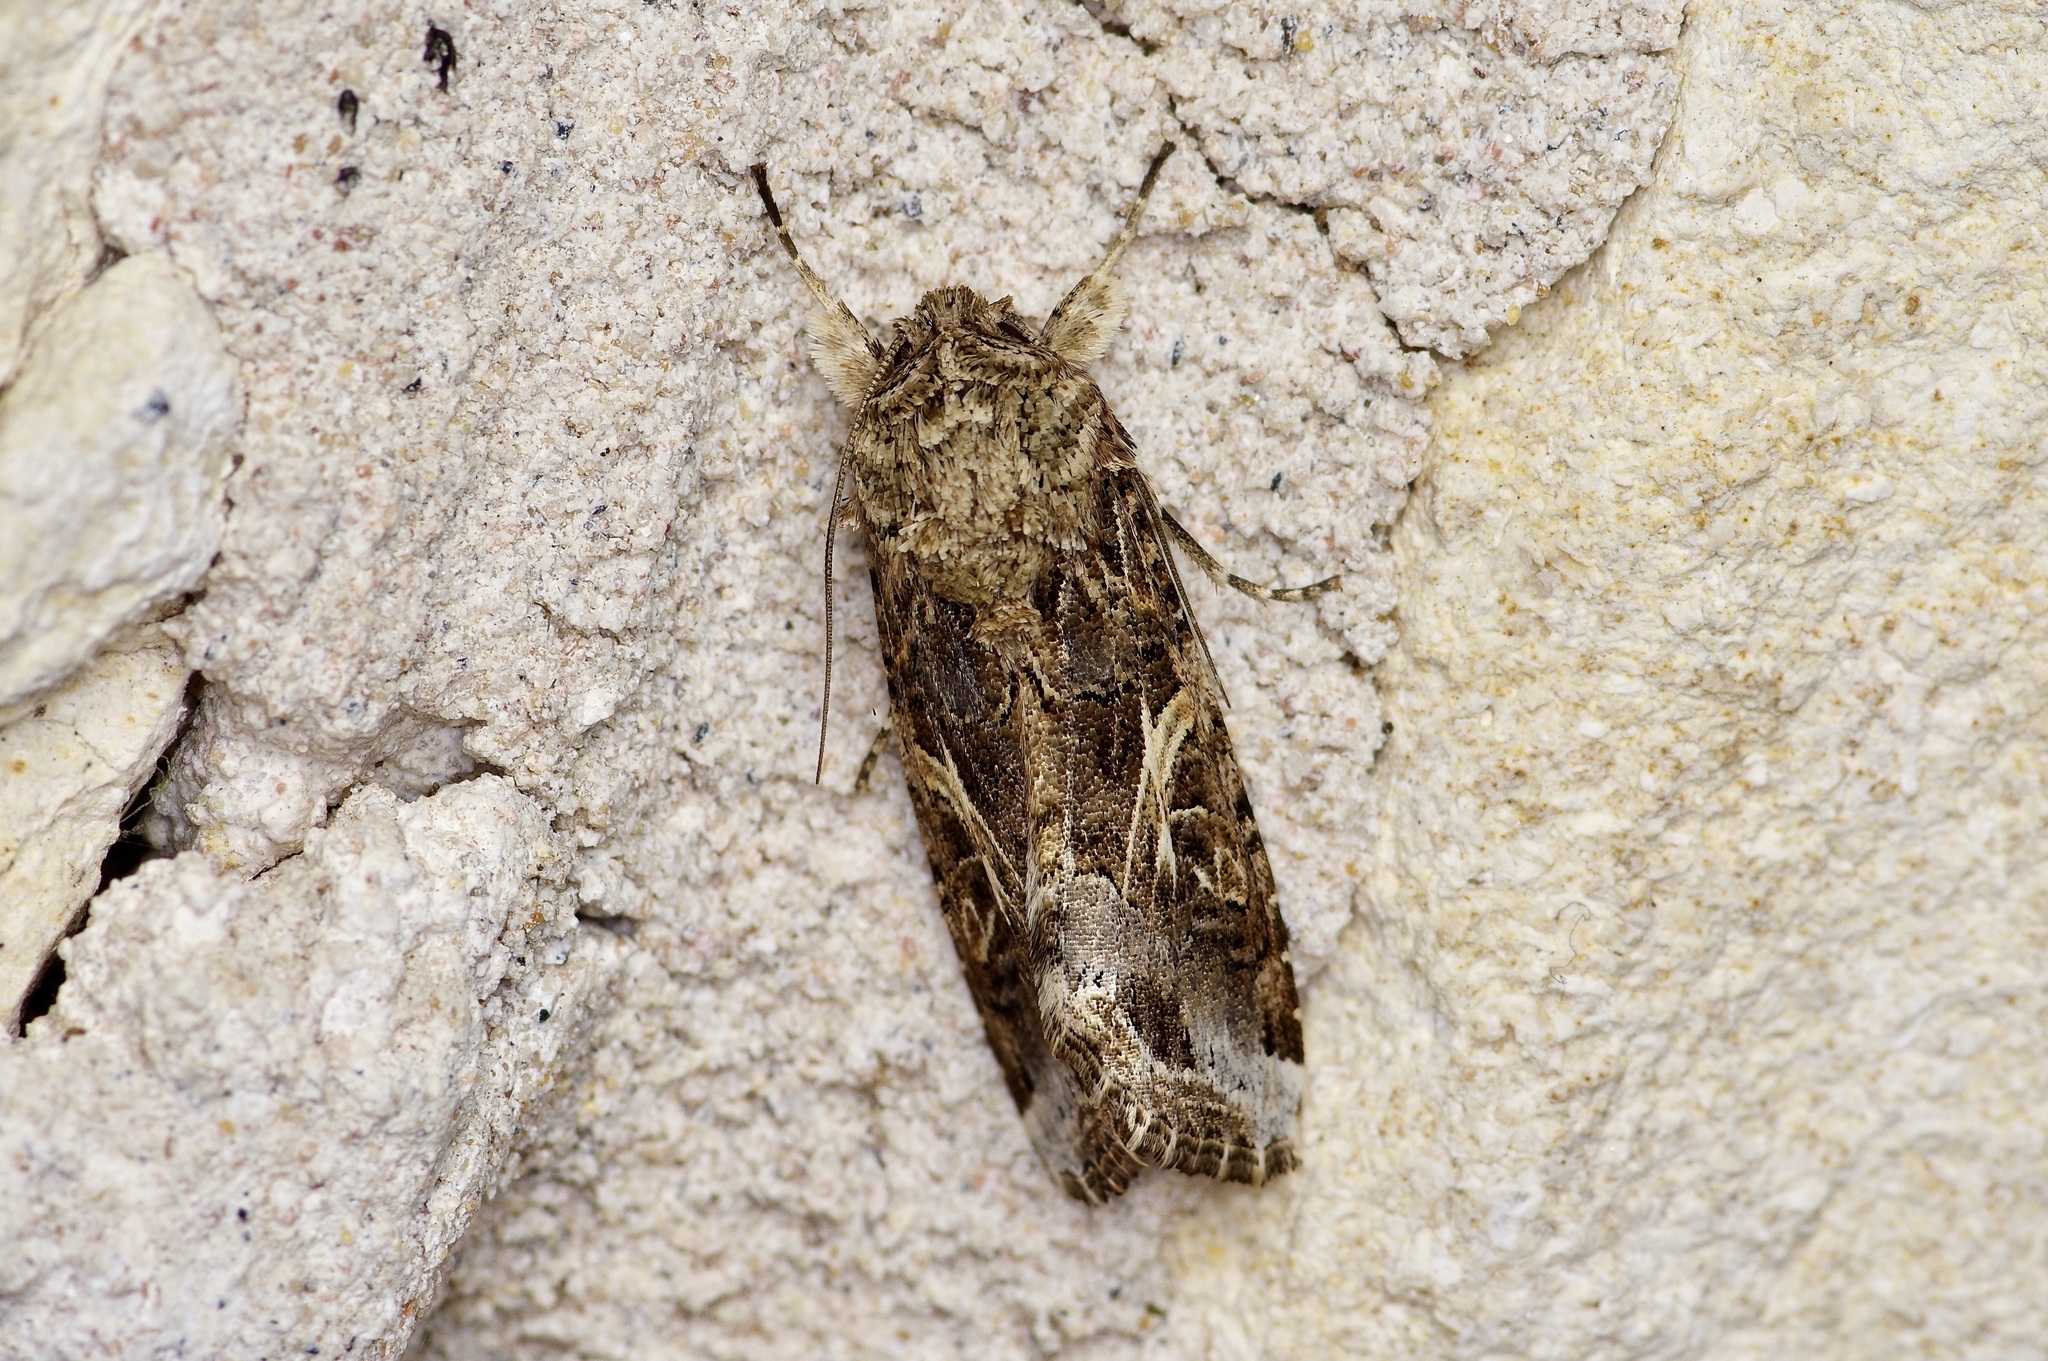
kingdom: Animalia
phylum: Arthropoda
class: Insecta
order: Lepidoptera
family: Noctuidae
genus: Spodoptera
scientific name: Spodoptera ornithogalli
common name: Yellow-striped armyworm
